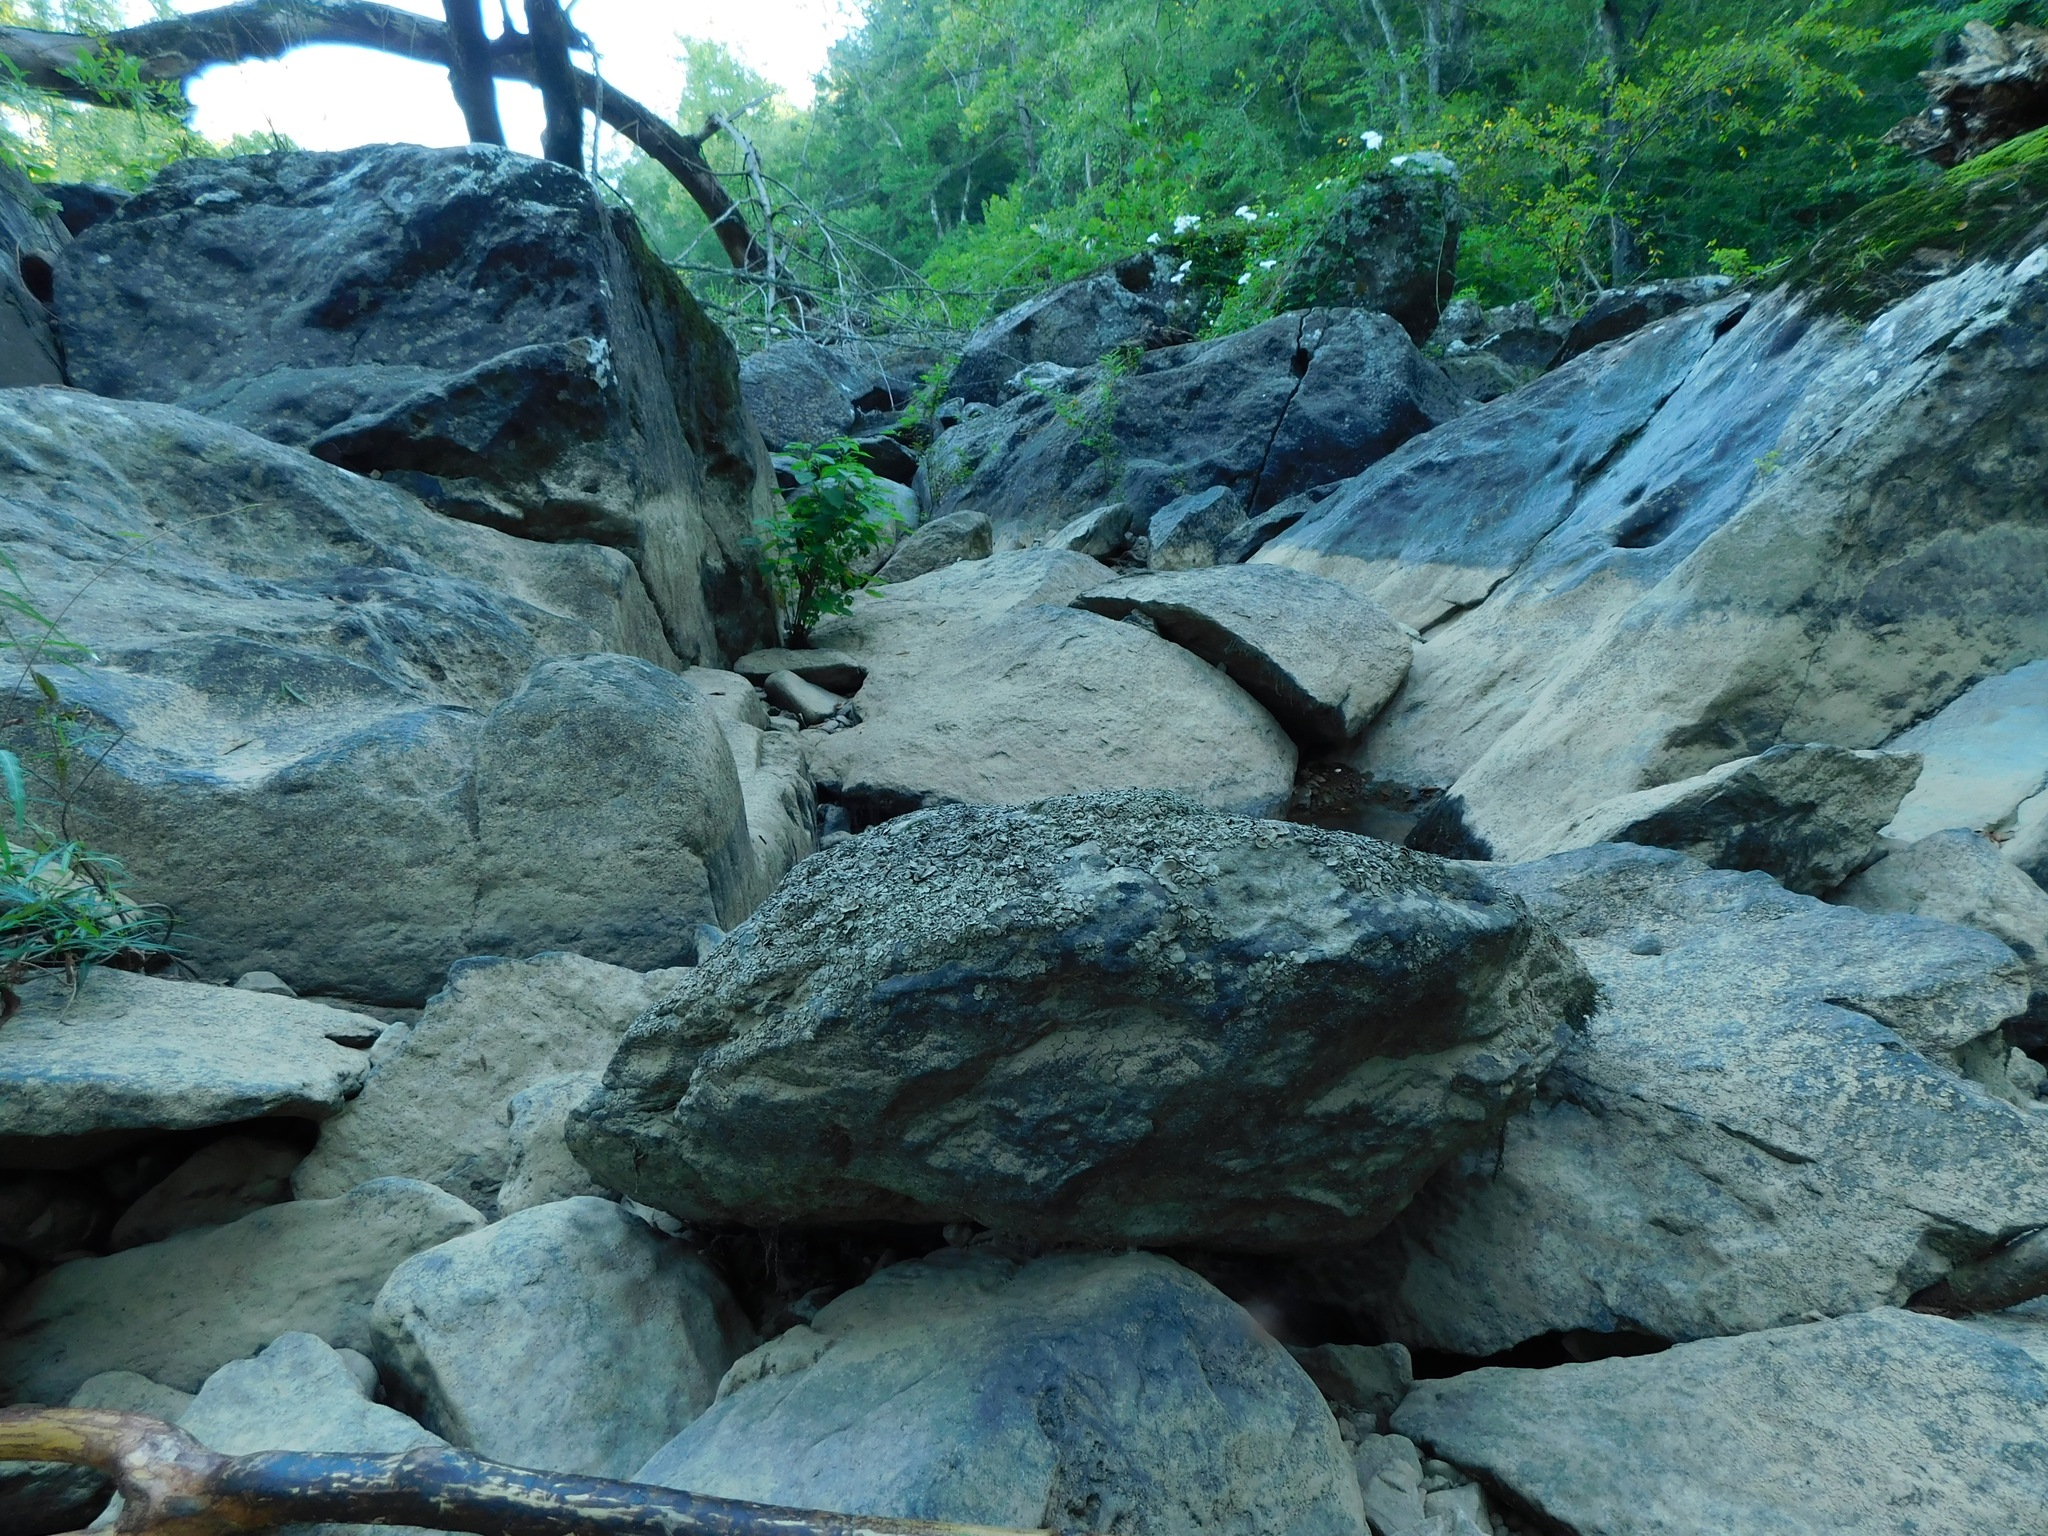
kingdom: Fungi
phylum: Ascomycota
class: Eurotiomycetes
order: Verrucariales
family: Verrucariaceae
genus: Dermatocarpon
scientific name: Dermatocarpon arenosaxi
